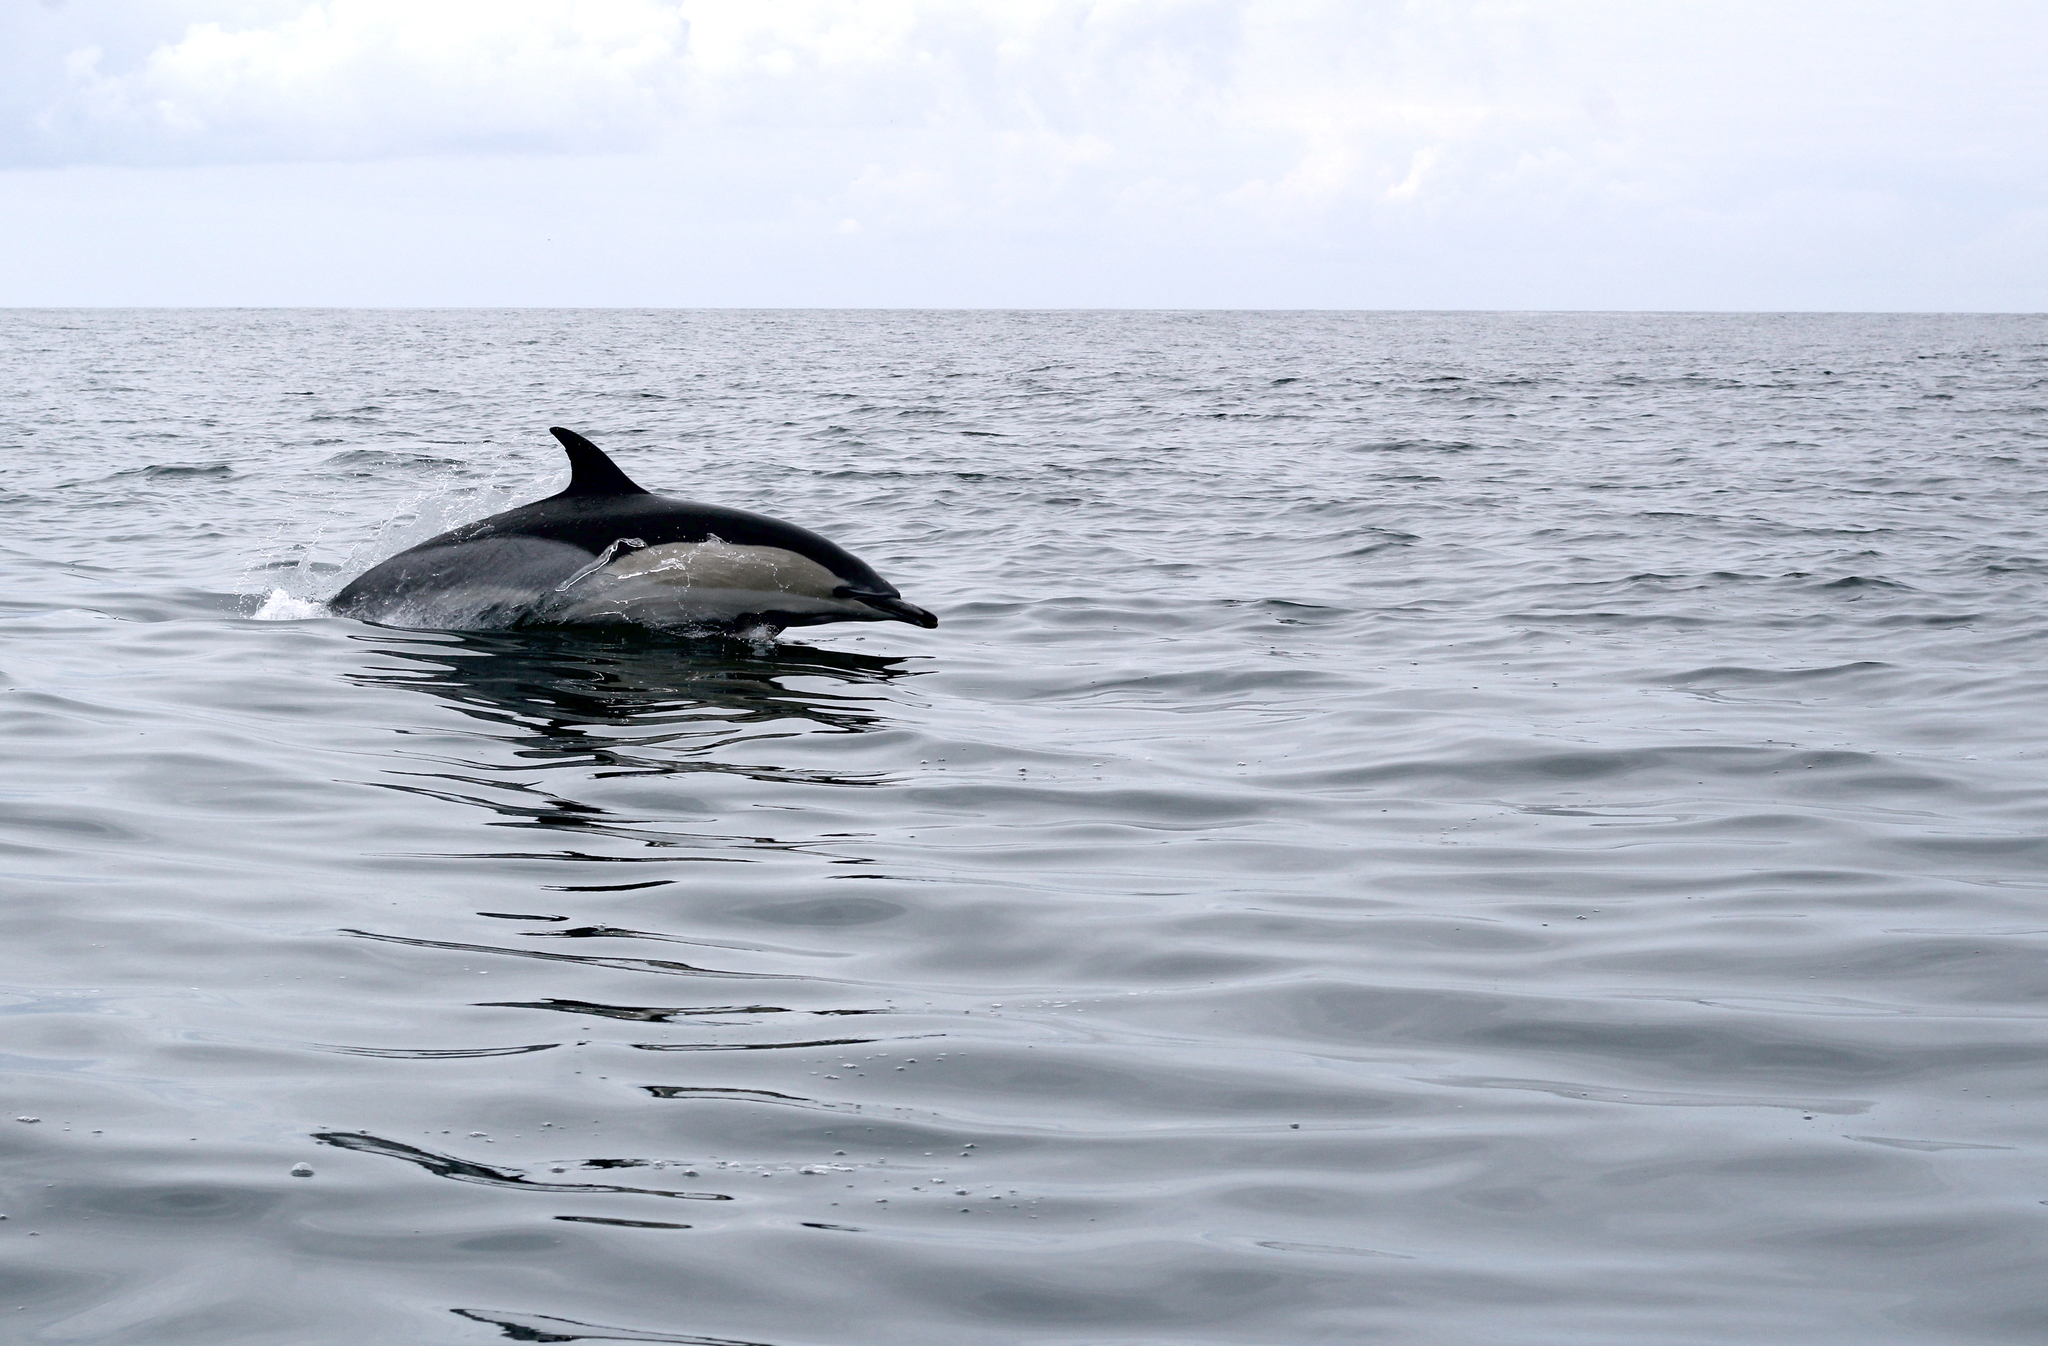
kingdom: Animalia
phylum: Chordata
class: Mammalia
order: Cetacea
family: Delphinidae
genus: Delphinus
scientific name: Delphinus delphis
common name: Common dolphin
